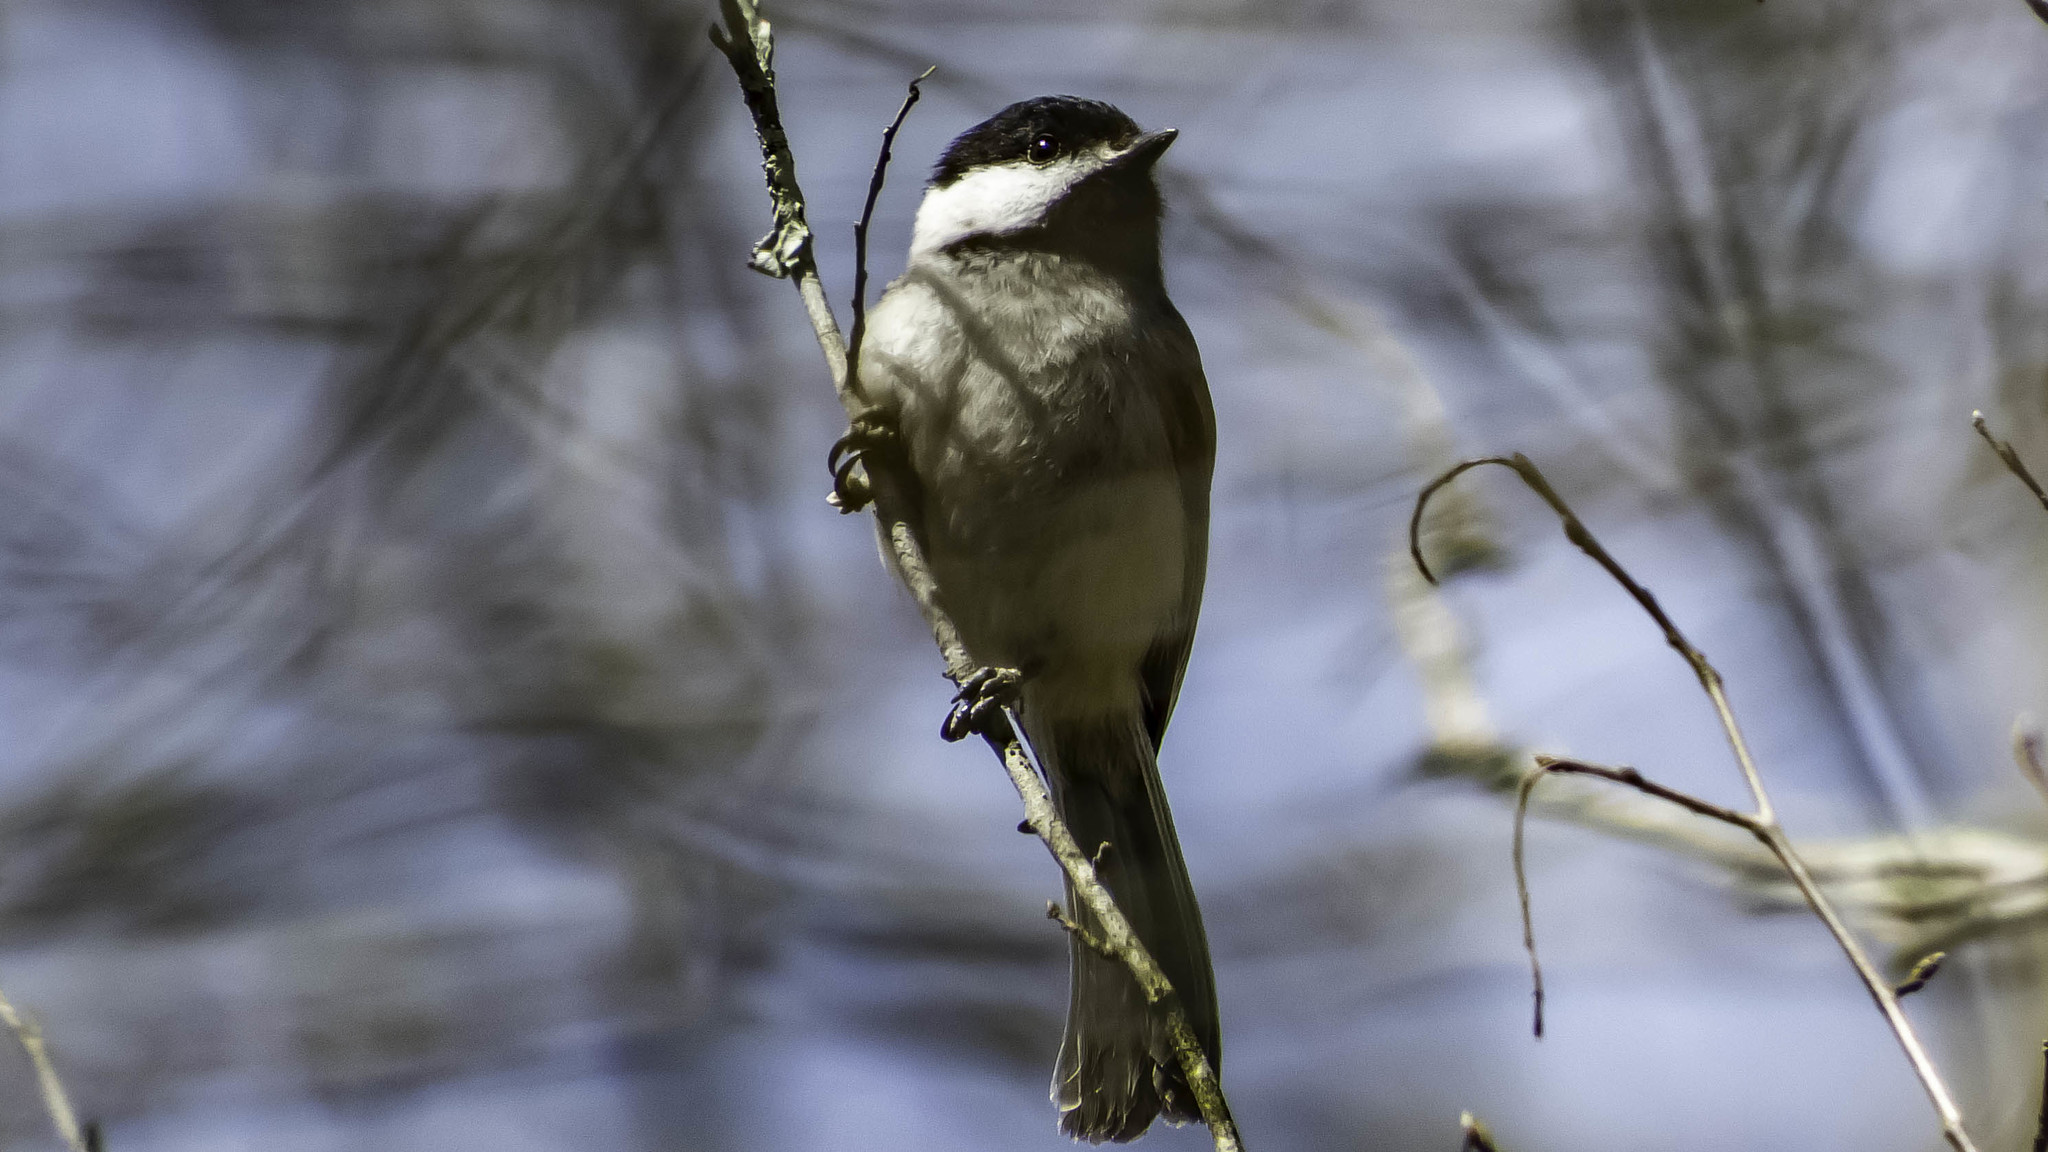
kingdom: Animalia
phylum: Chordata
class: Aves
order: Passeriformes
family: Paridae
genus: Poecile
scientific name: Poecile carolinensis
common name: Carolina chickadee
